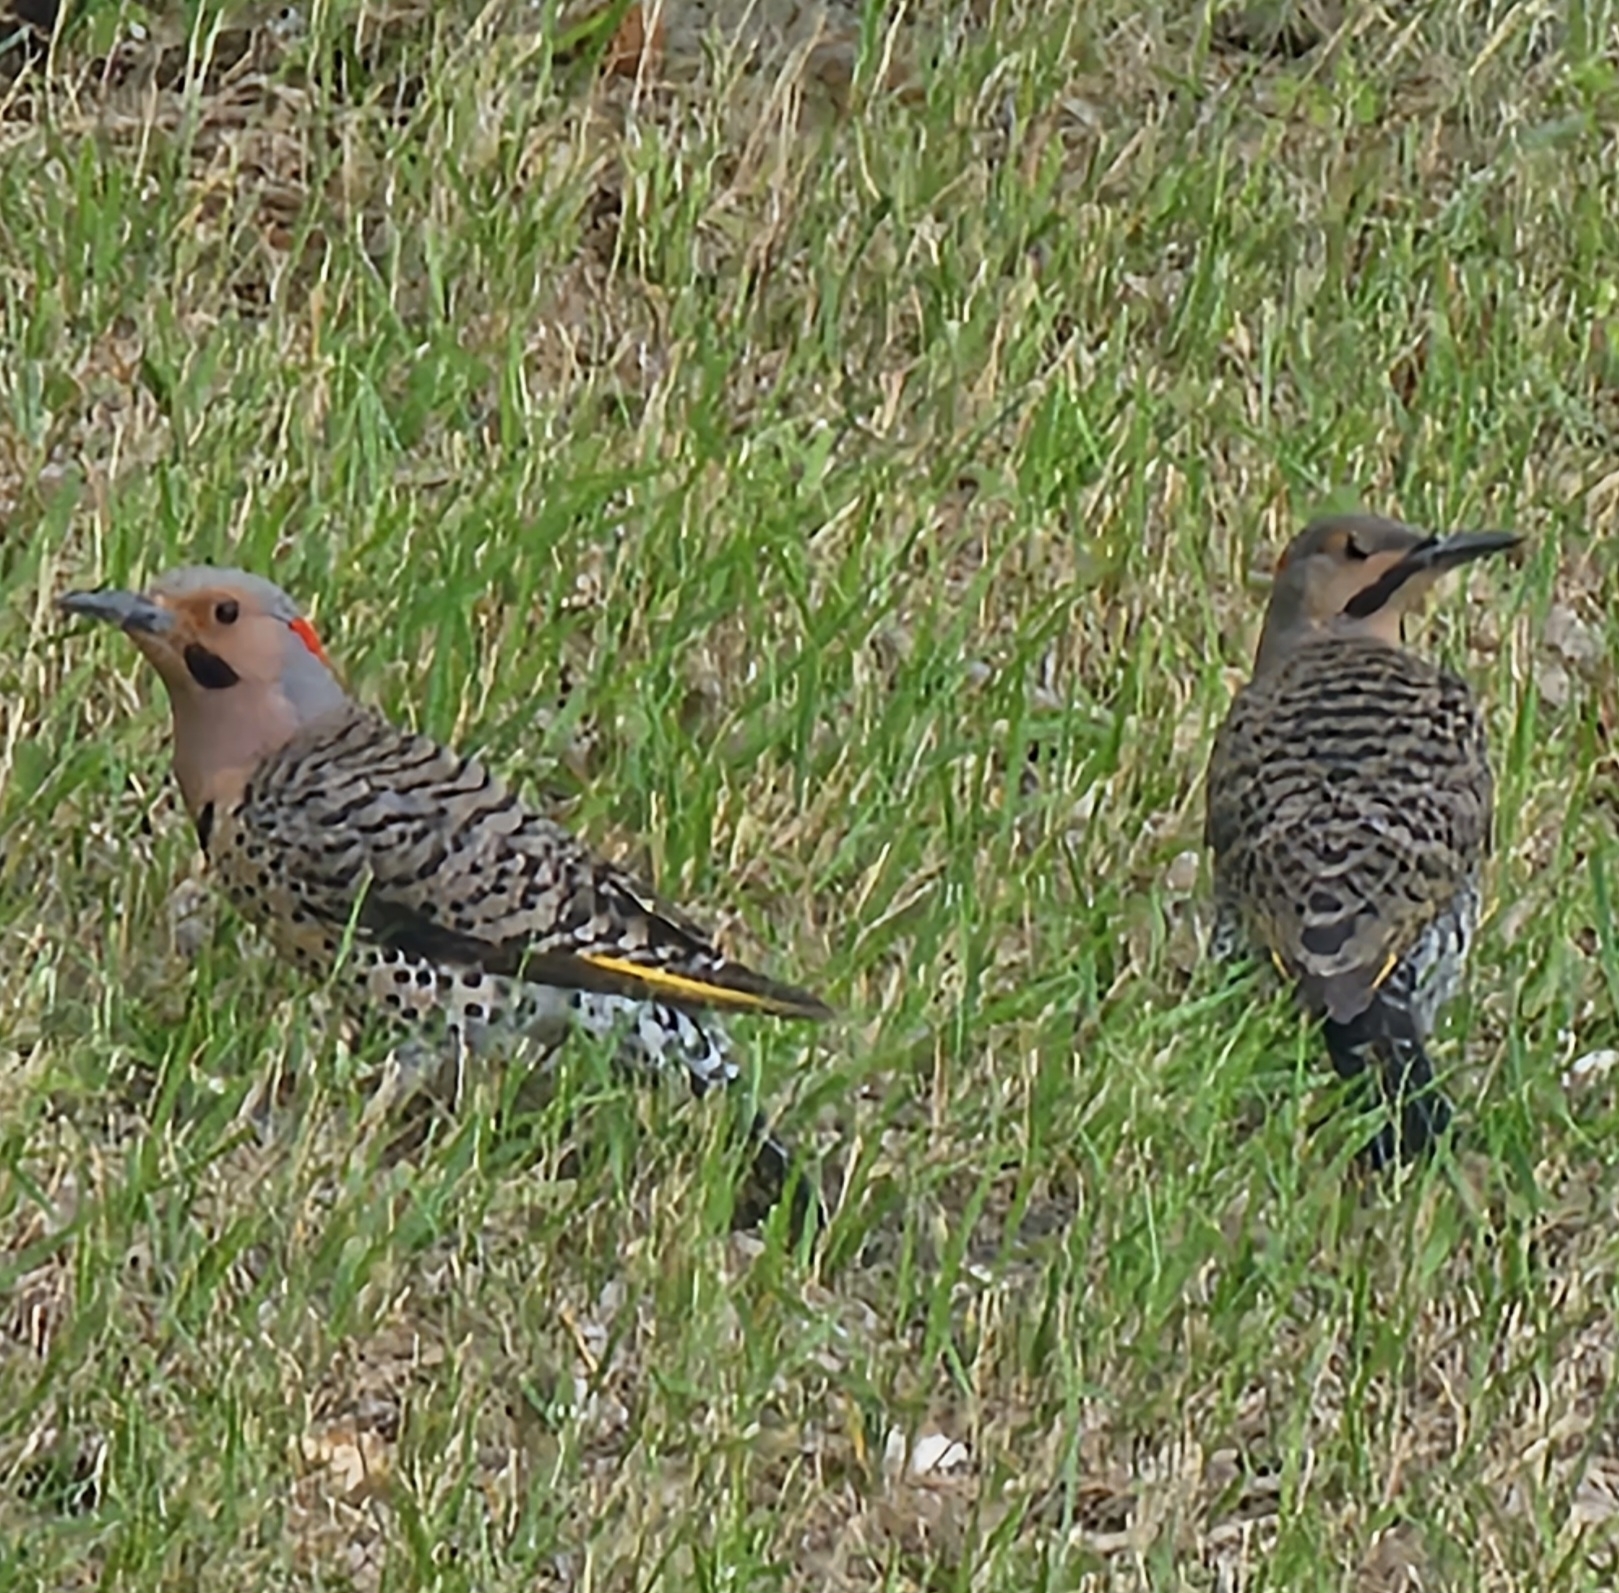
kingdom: Animalia
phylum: Chordata
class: Aves
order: Piciformes
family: Picidae
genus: Colaptes
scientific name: Colaptes auratus
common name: Northern flicker
